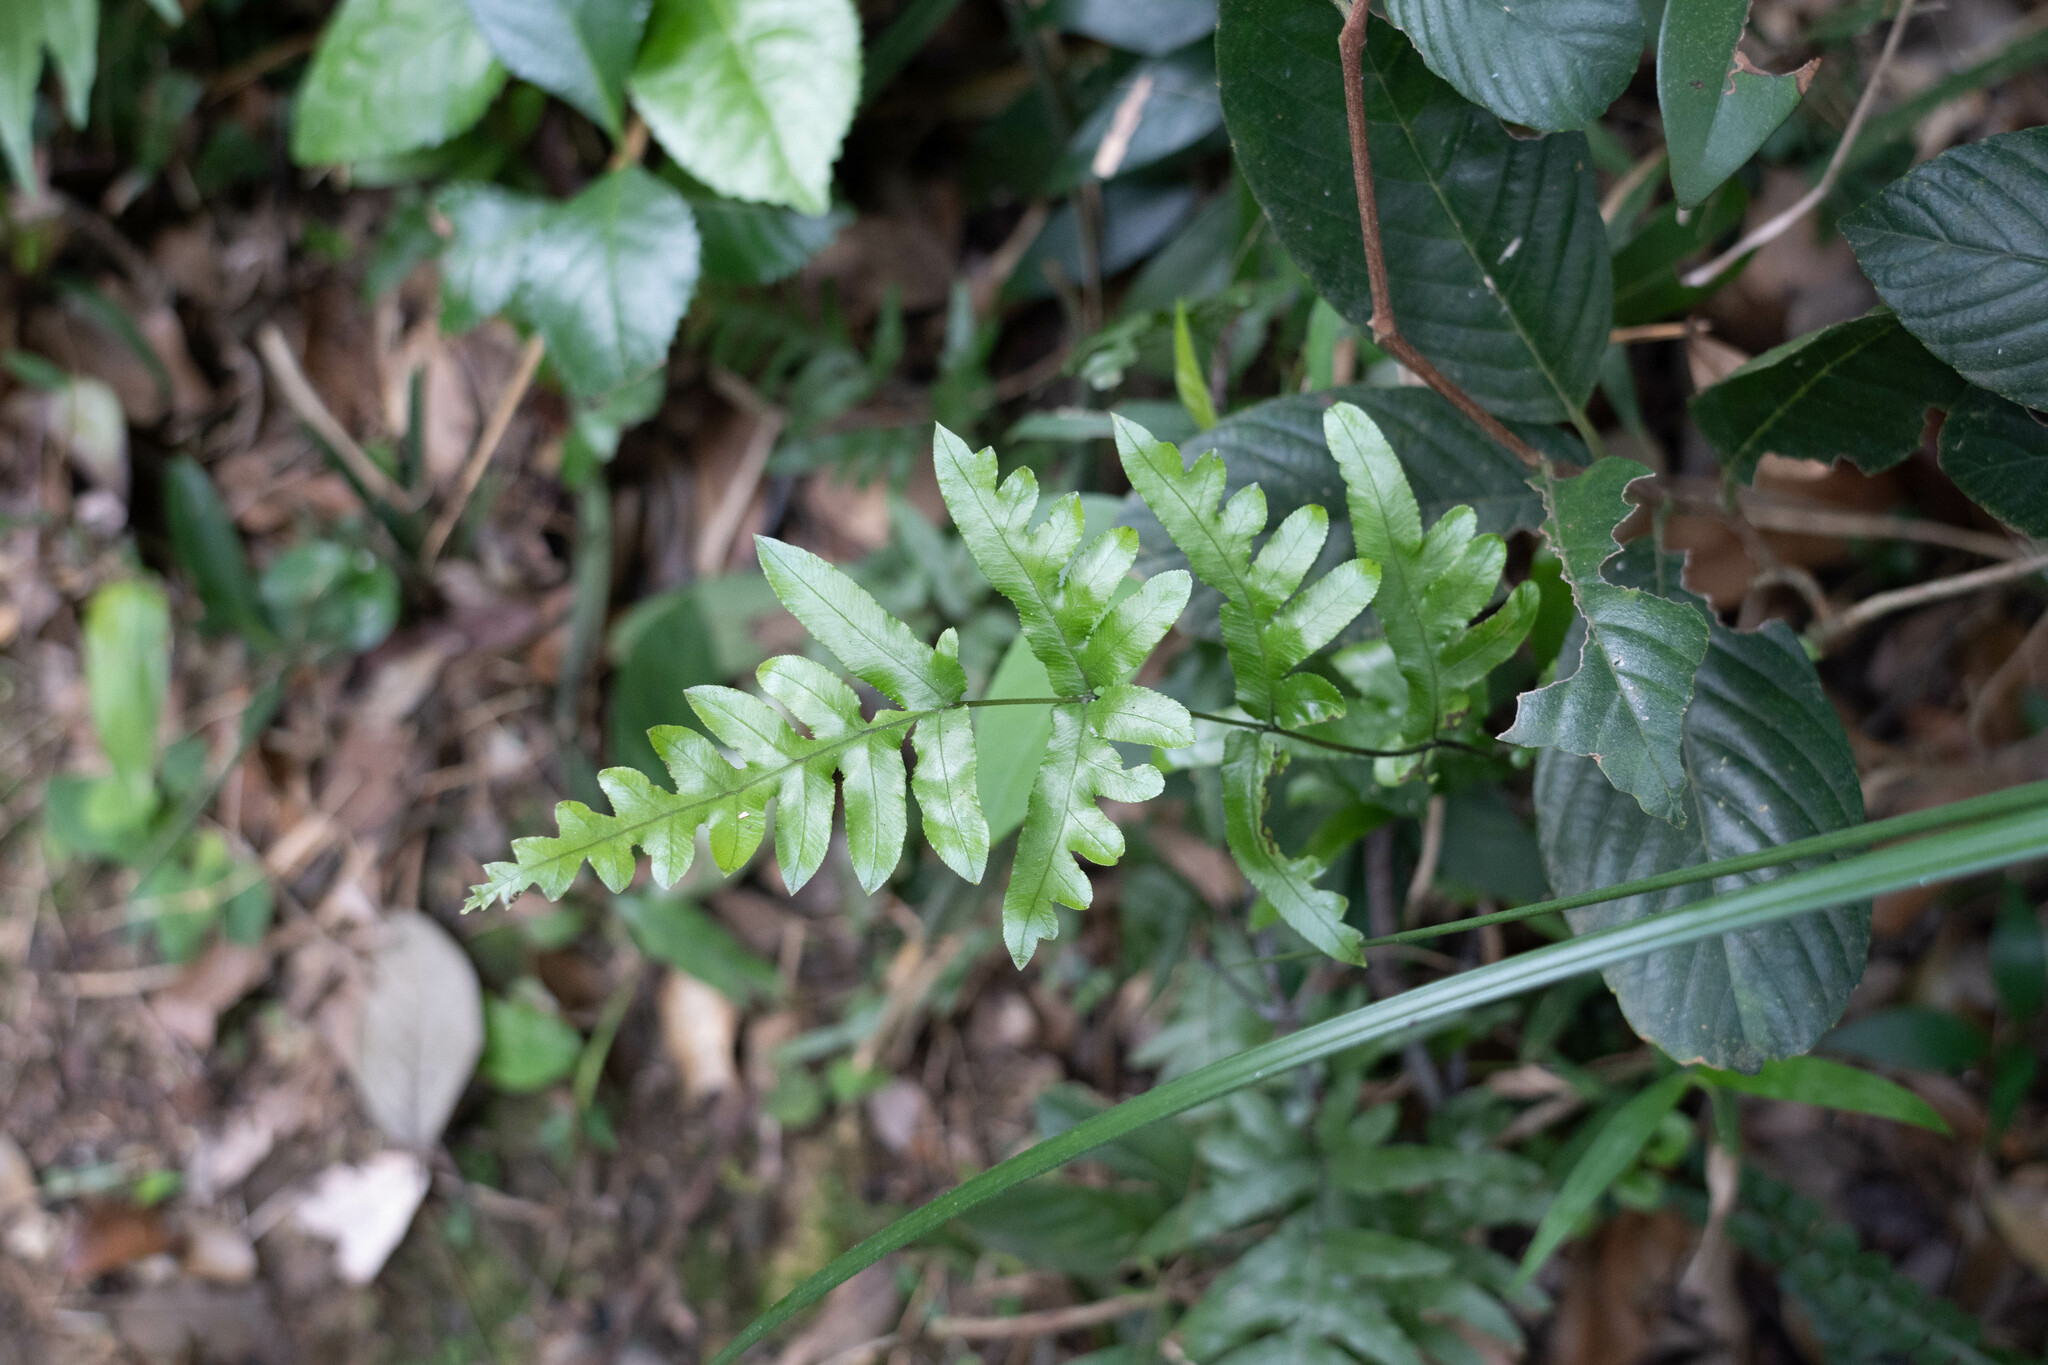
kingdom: Plantae
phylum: Tracheophyta
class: Polypodiopsida
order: Polypodiales
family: Pteridaceae
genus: Pteris
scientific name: Pteris dispar
